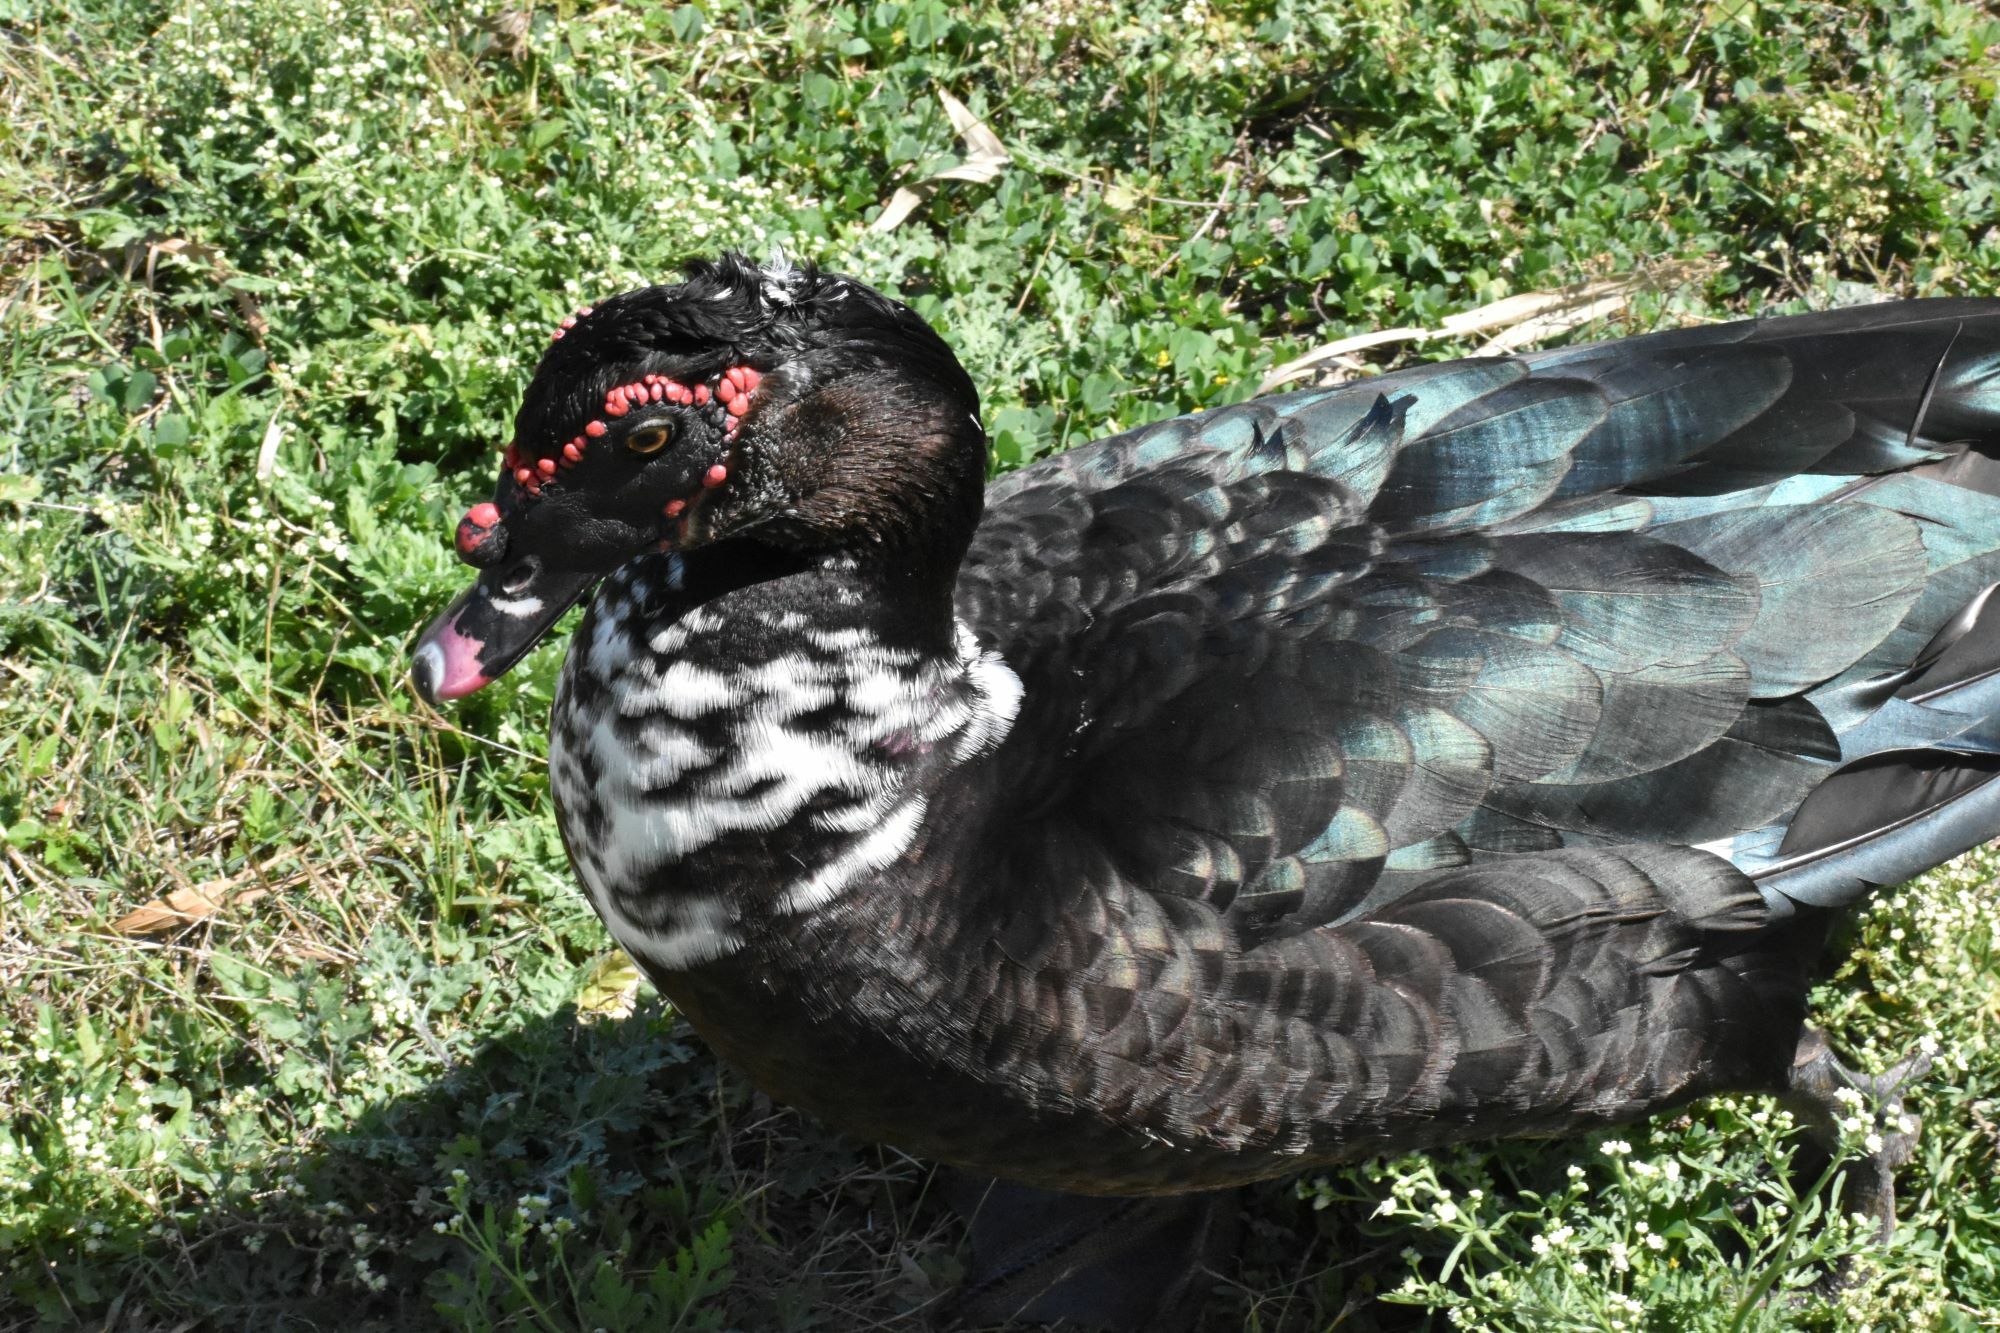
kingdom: Animalia
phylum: Chordata
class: Aves
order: Anseriformes
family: Anatidae
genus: Cairina
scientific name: Cairina moschata
